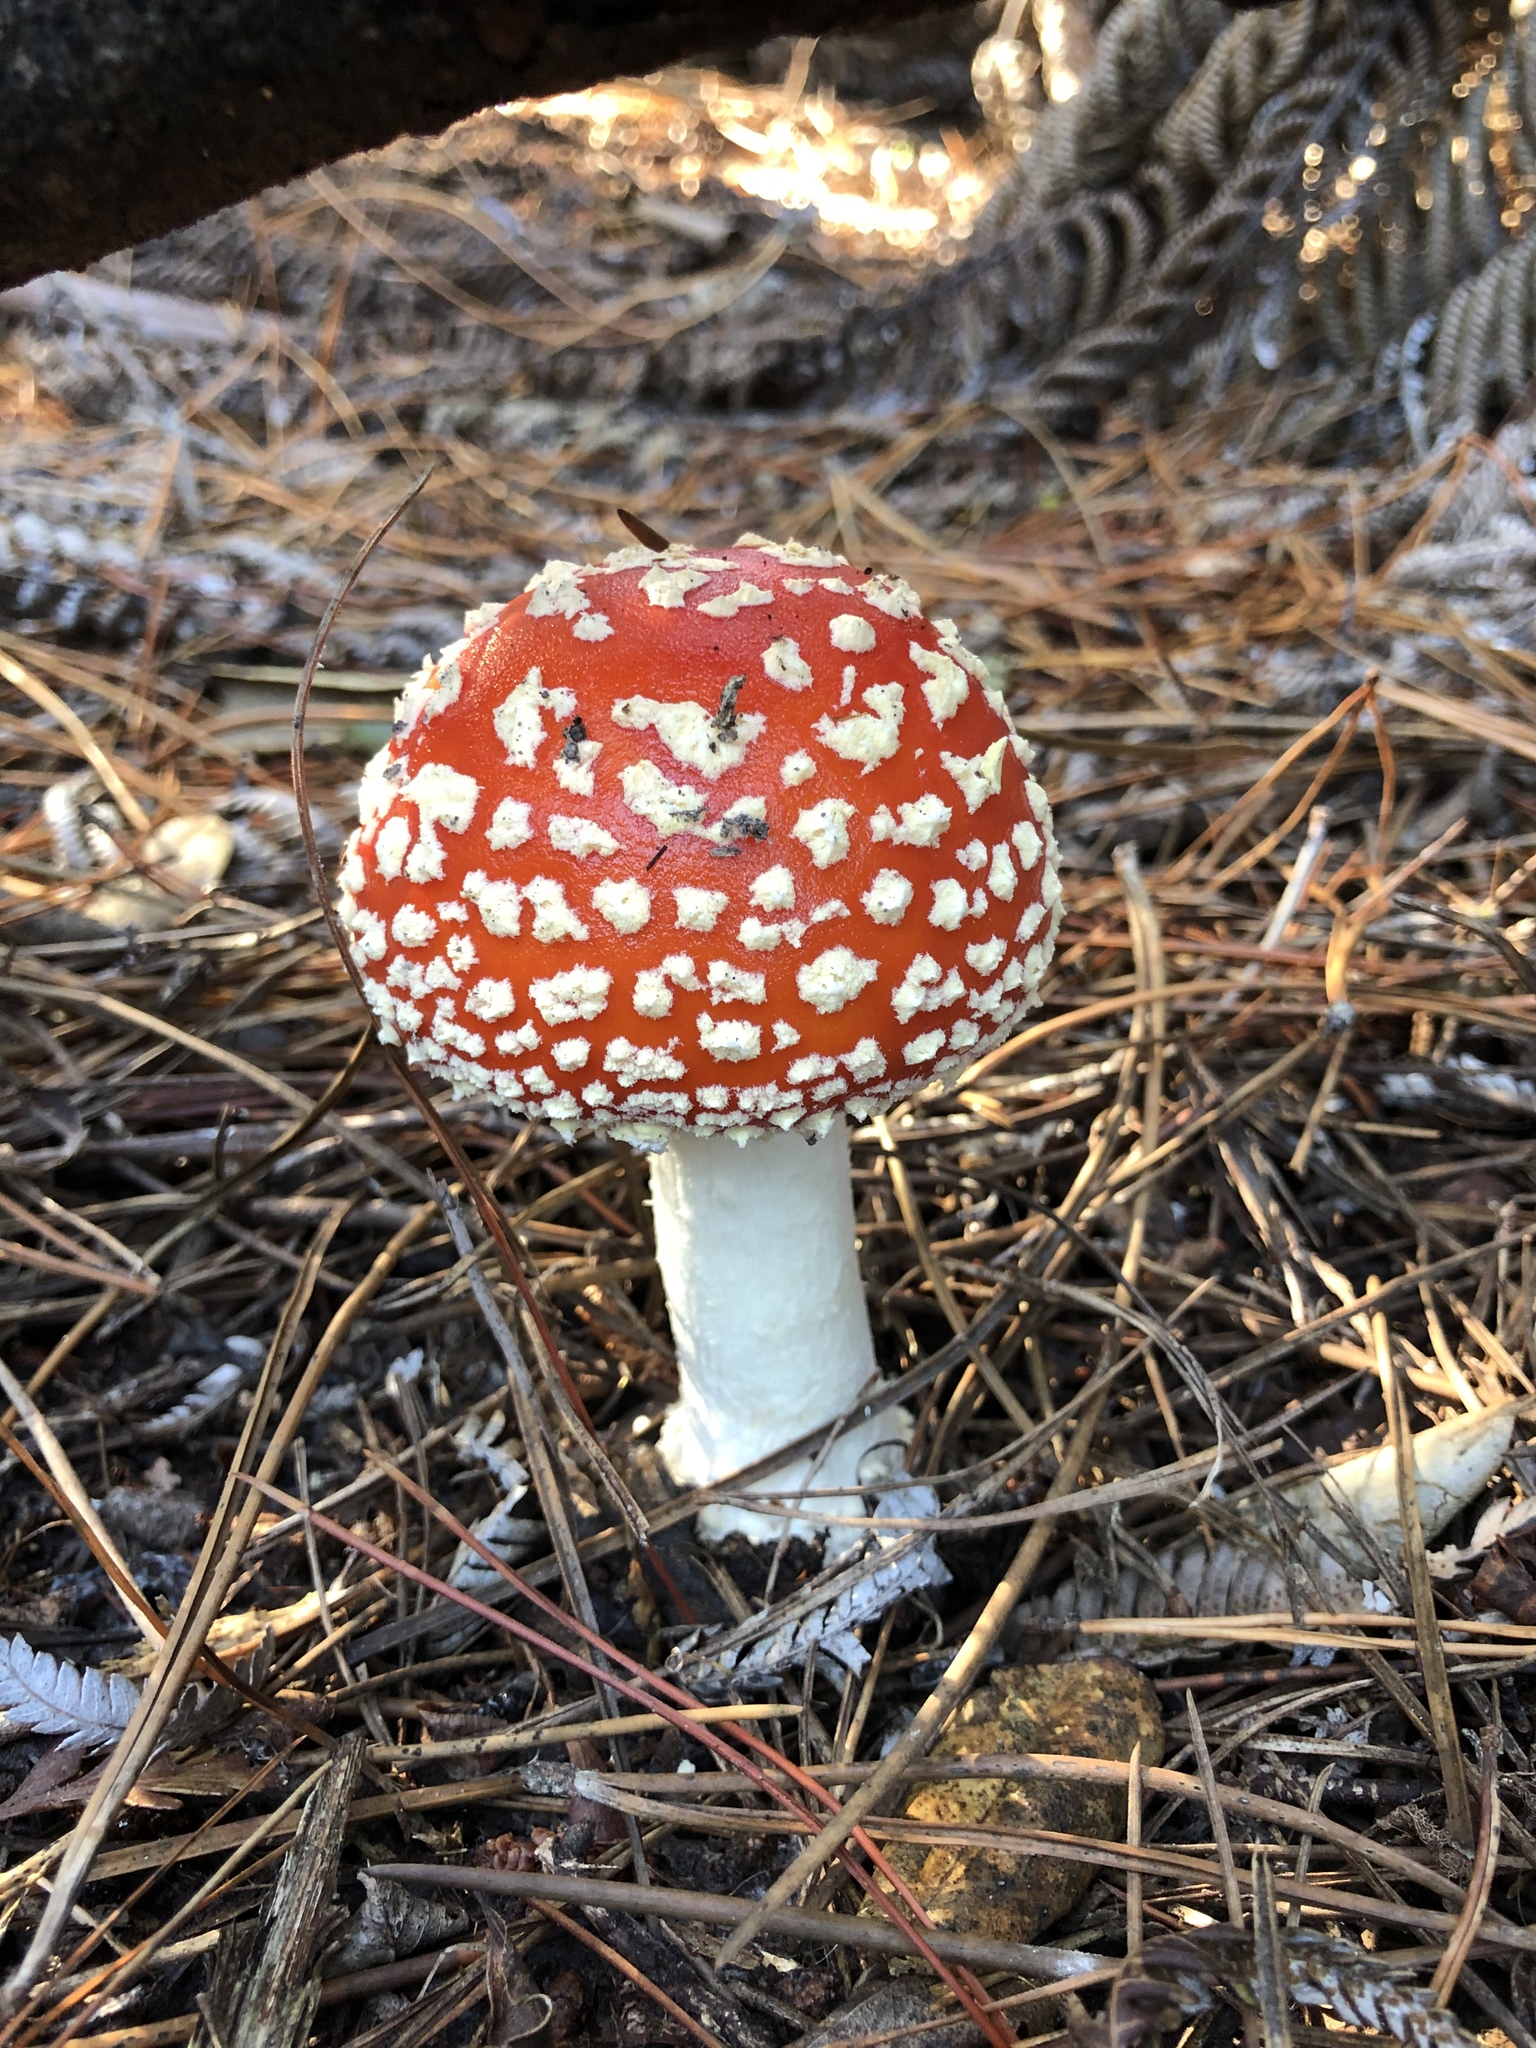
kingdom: Fungi
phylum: Basidiomycota
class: Agaricomycetes
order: Agaricales
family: Amanitaceae
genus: Amanita
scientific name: Amanita muscaria
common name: Fly agaric
